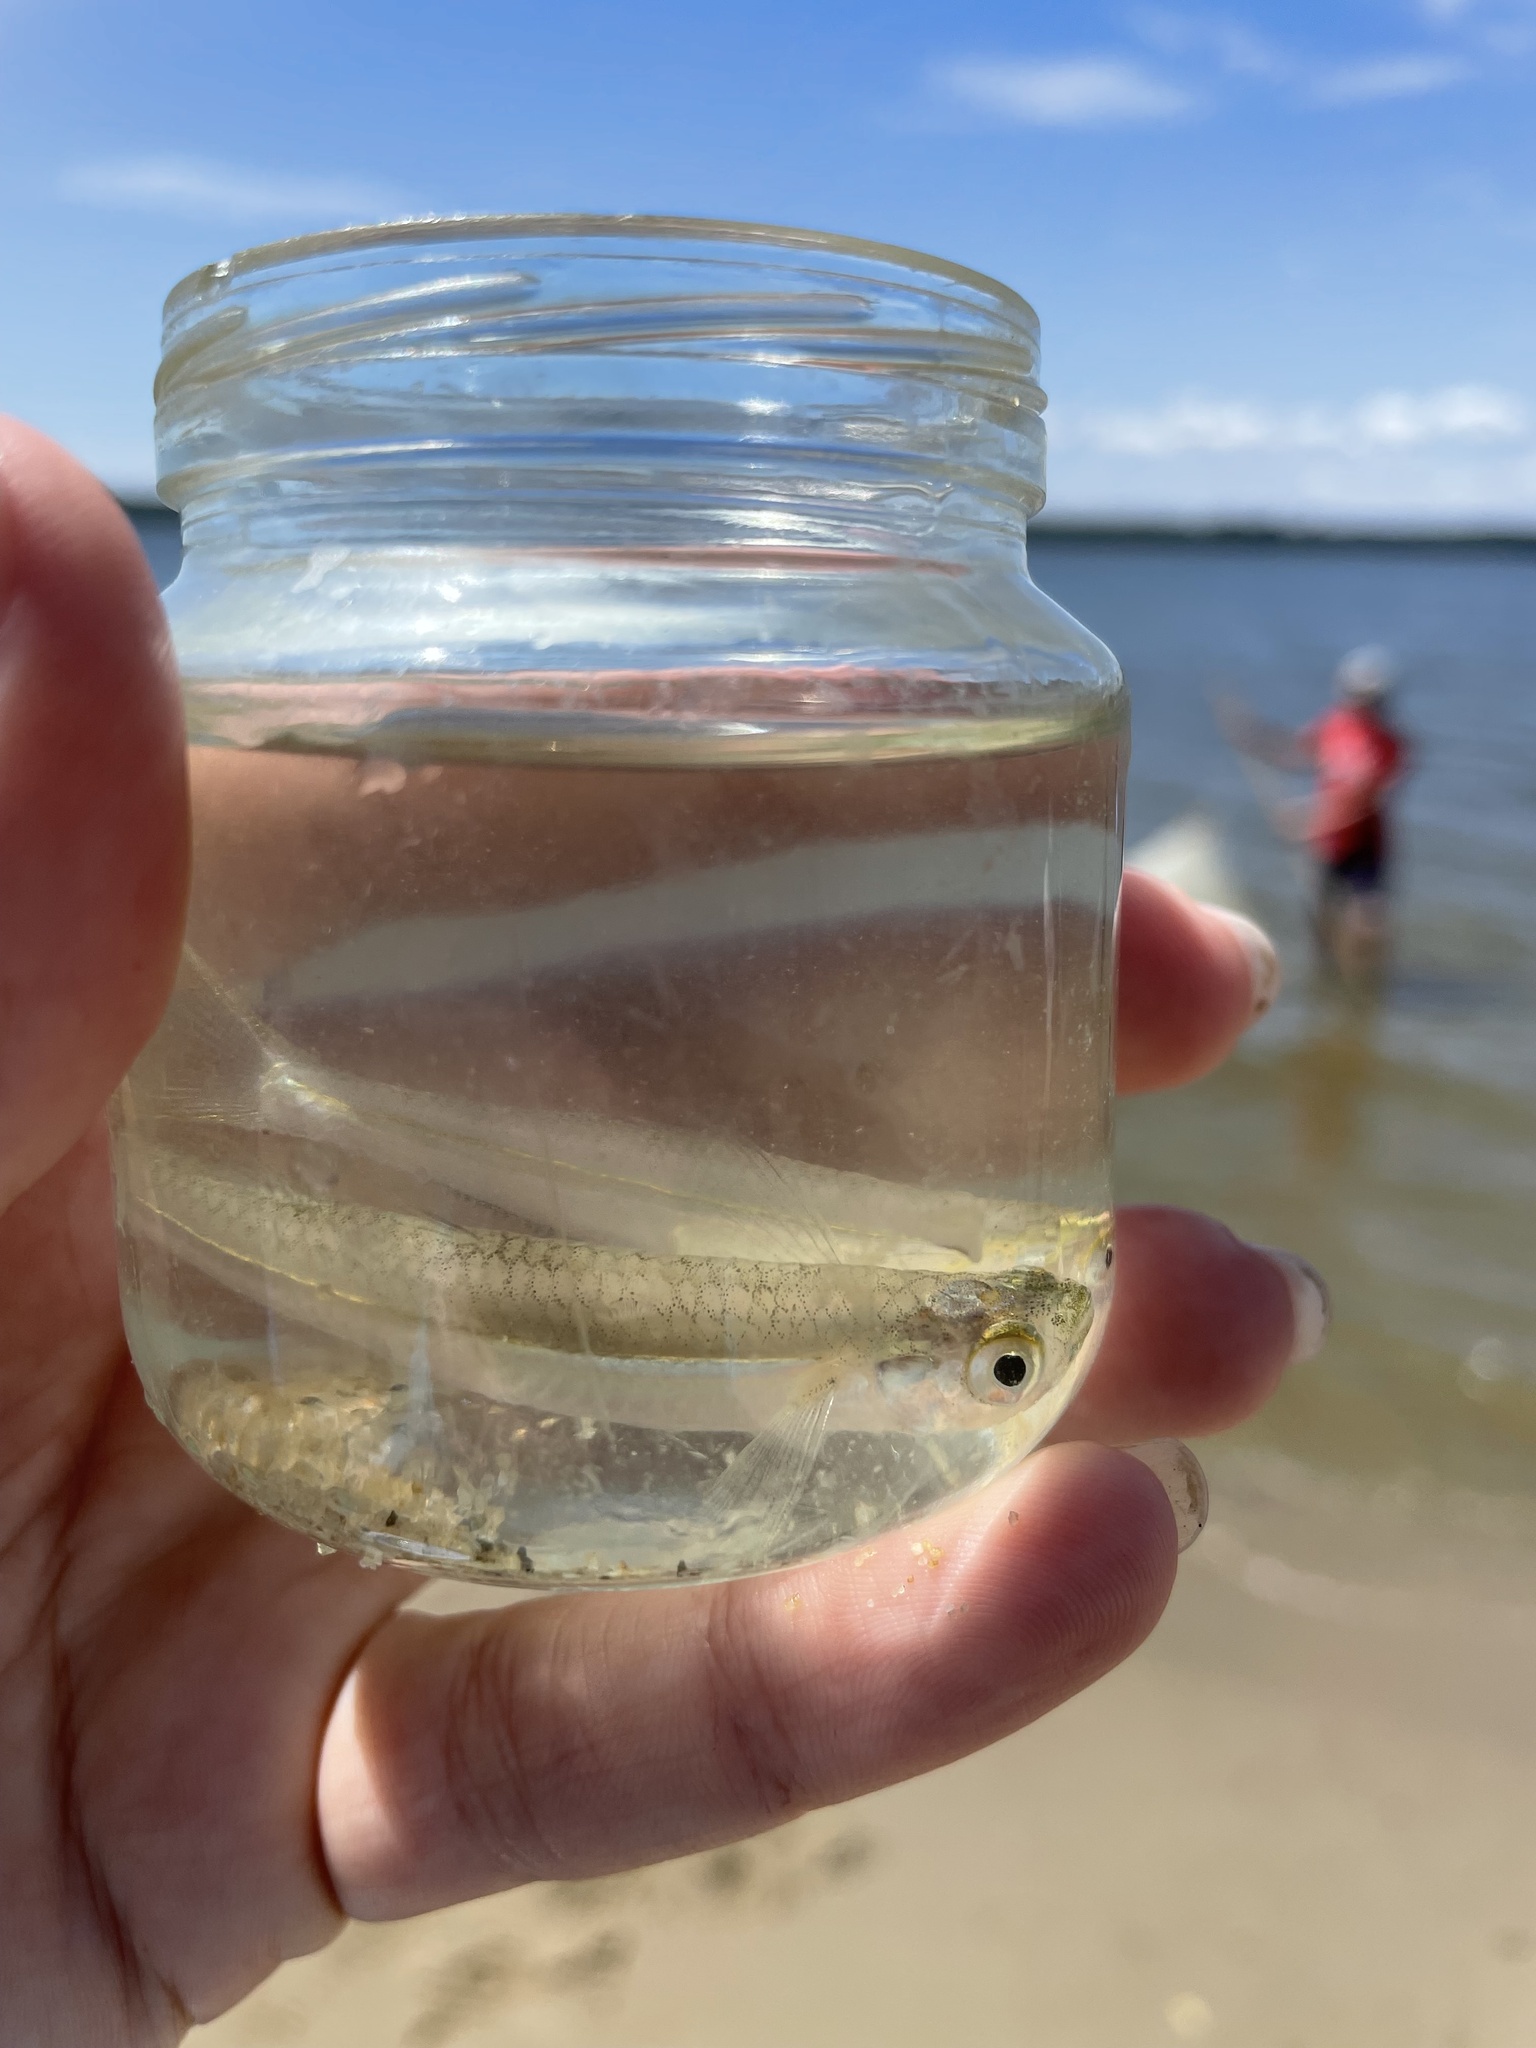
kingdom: Animalia
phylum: Chordata
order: Atheriniformes
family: Atherinopsidae
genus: Menidia
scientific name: Menidia menidia
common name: Atlantic silverside
